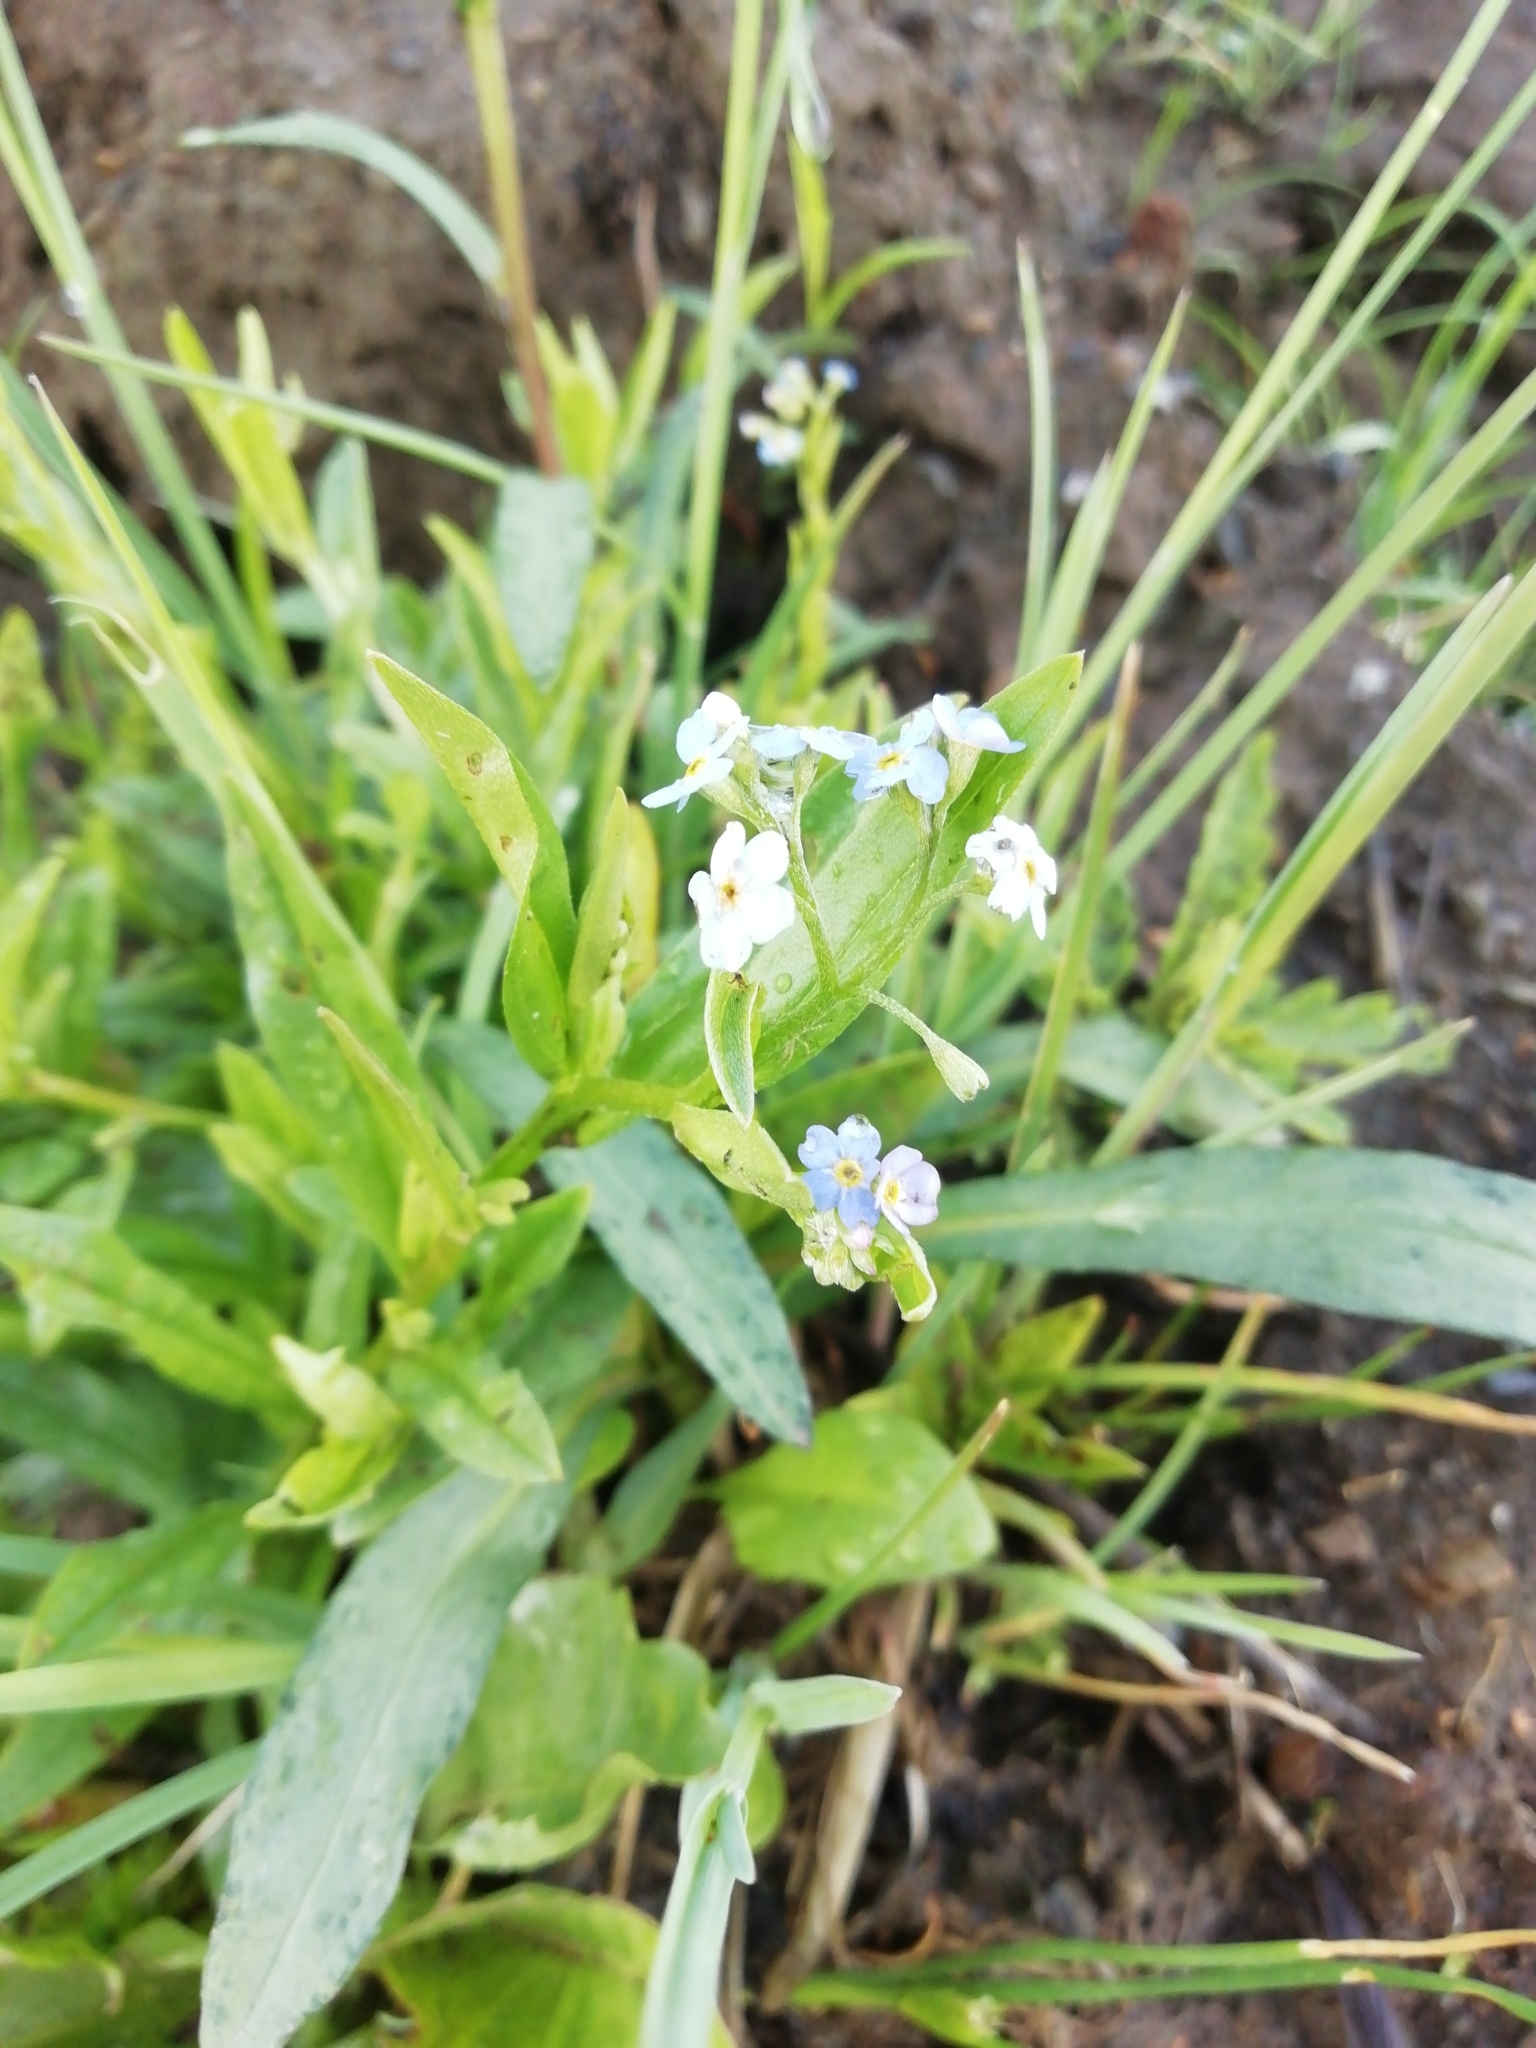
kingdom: Plantae
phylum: Tracheophyta
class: Magnoliopsida
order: Boraginales
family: Boraginaceae
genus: Myosotis
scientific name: Myosotis scorpioides
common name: Water forget-me-not
